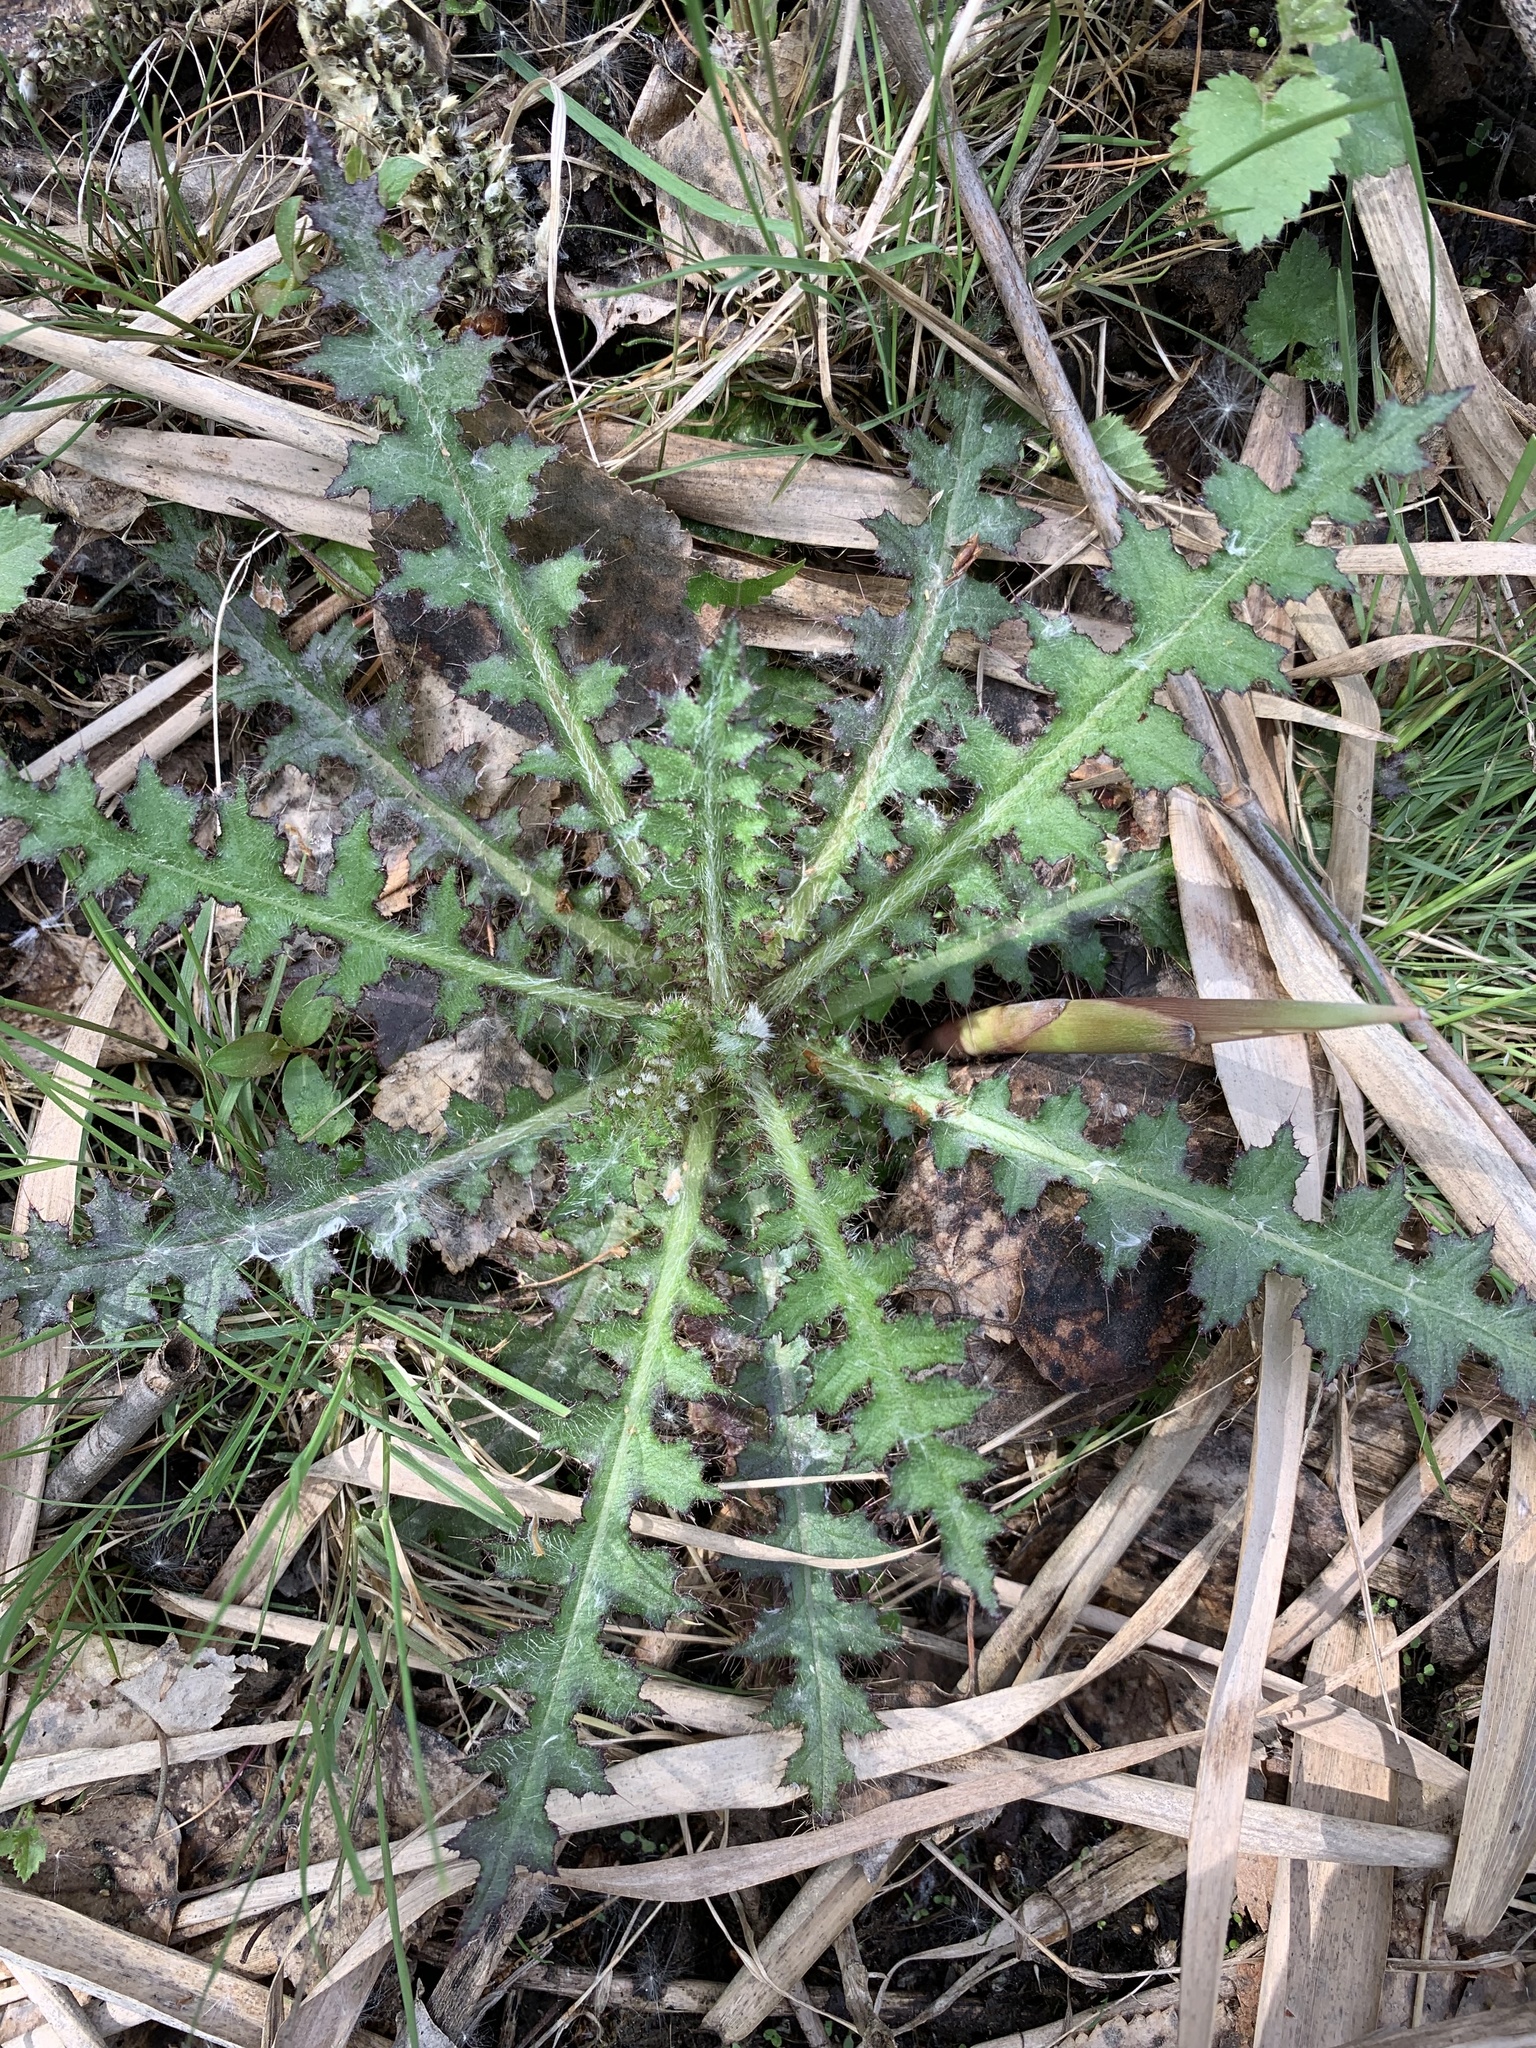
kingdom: Plantae
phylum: Tracheophyta
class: Magnoliopsida
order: Asterales
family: Asteraceae
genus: Cirsium
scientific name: Cirsium palustre
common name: Marsh thistle
